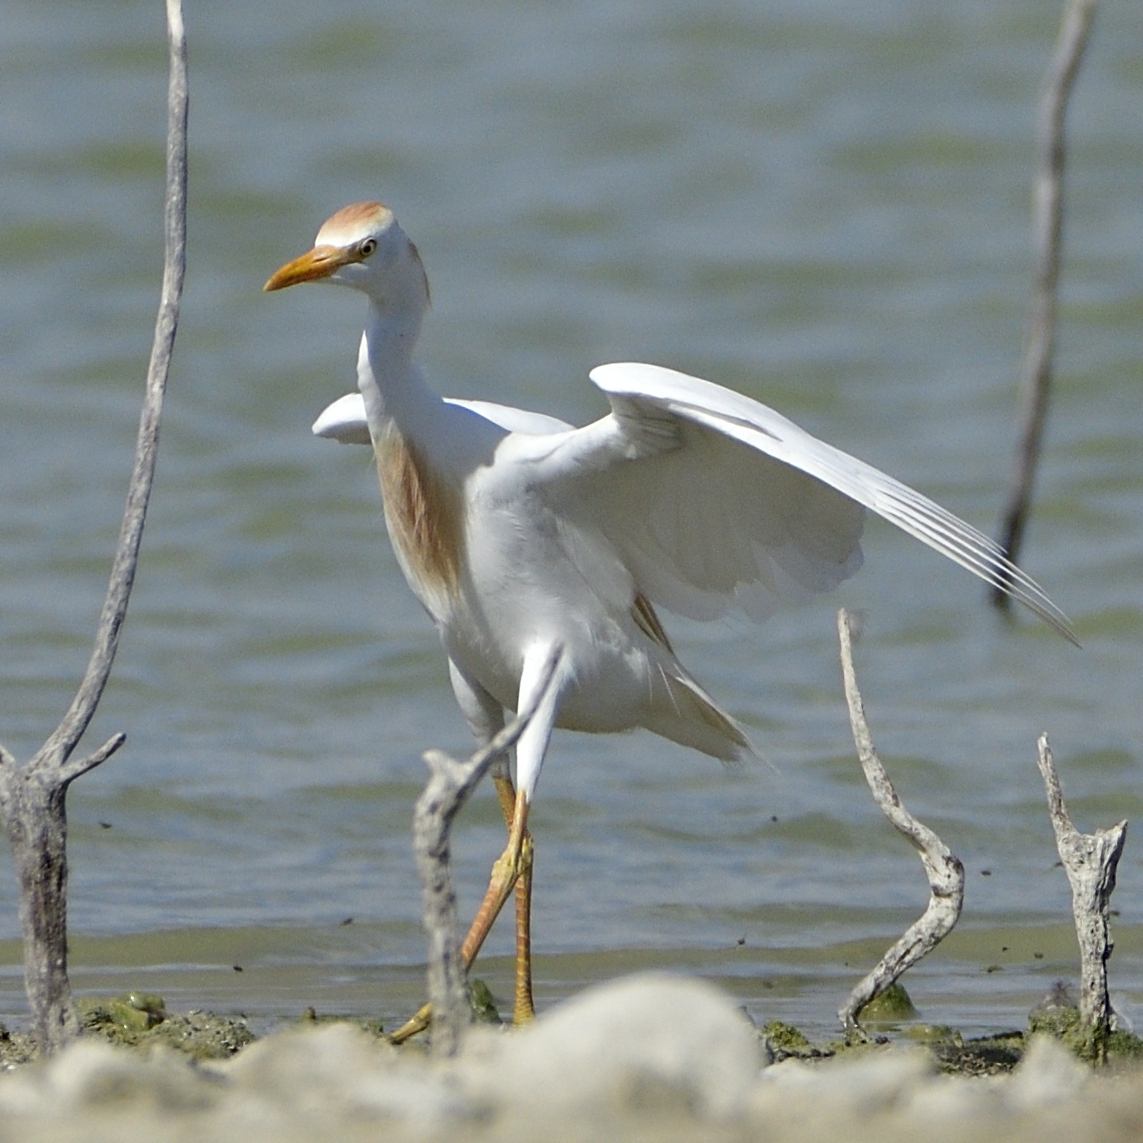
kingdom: Animalia
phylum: Chordata
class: Aves
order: Pelecaniformes
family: Ardeidae
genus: Bubulcus
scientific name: Bubulcus ibis
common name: Cattle egret
